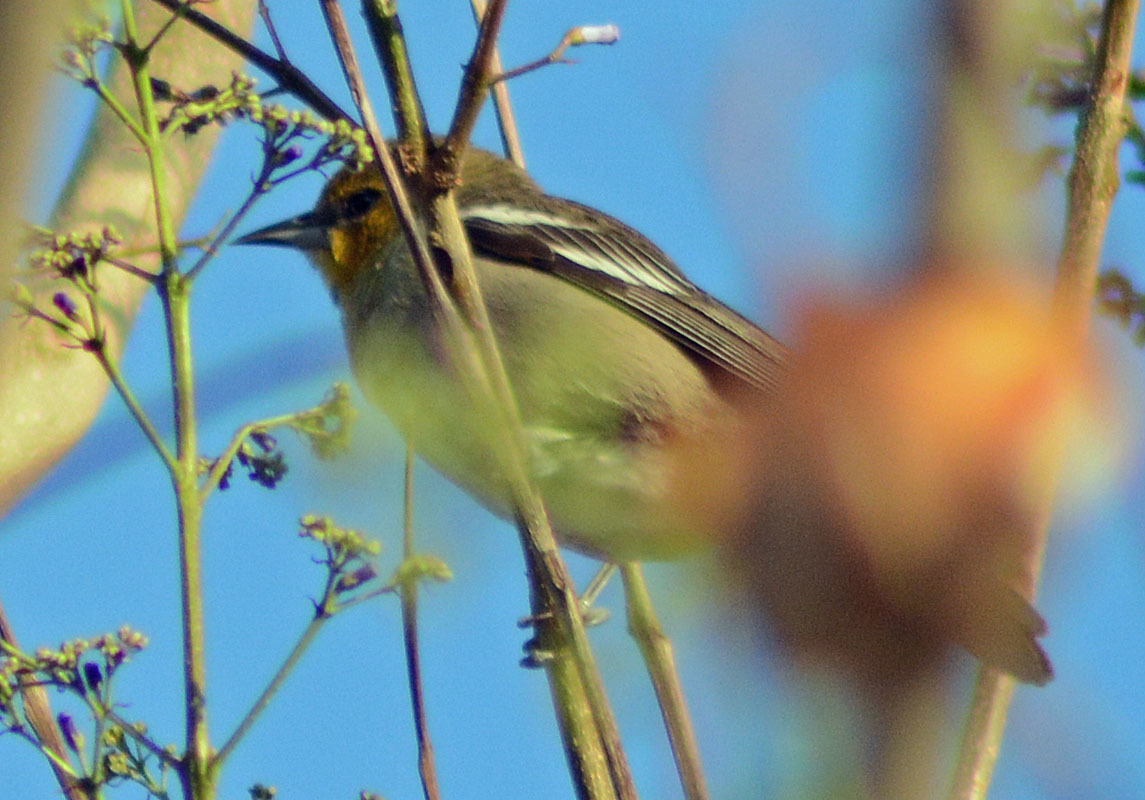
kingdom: Animalia
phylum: Chordata
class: Aves
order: Passeriformes
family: Icteridae
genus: Icterus
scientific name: Icterus abeillei
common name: Black-backed oriole
